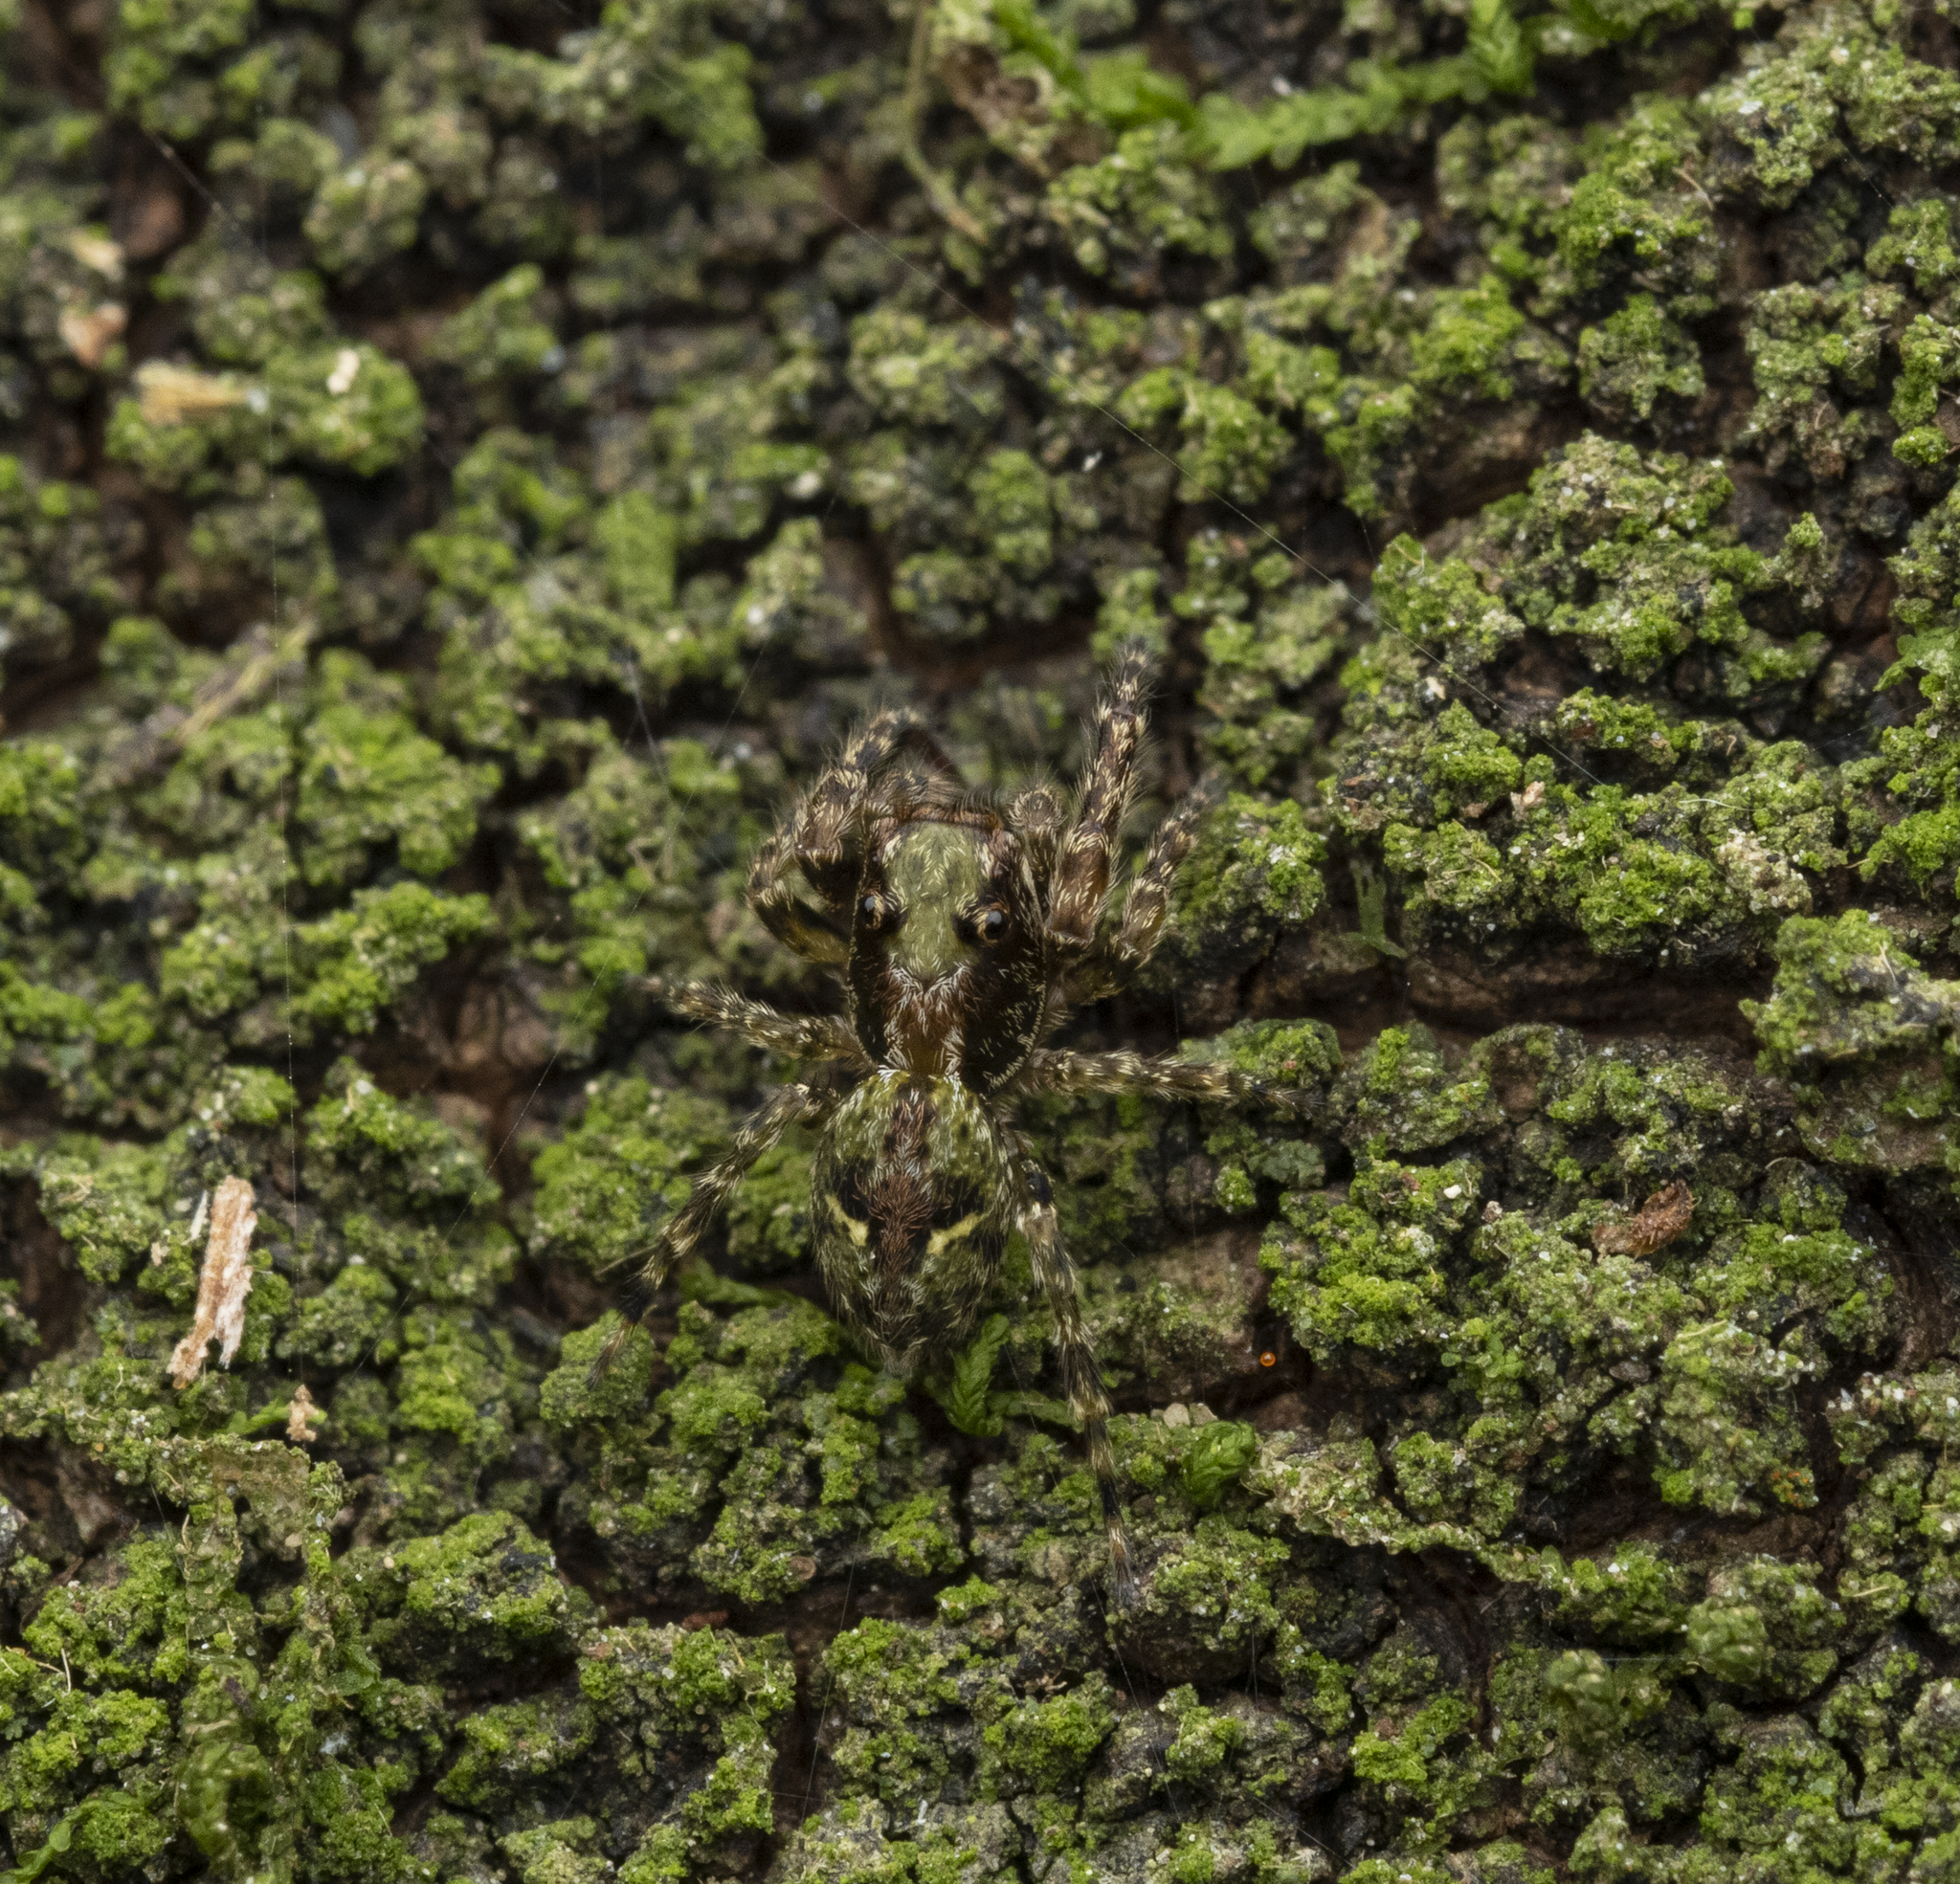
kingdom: Animalia
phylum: Arthropoda
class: Arachnida
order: Araneae
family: Salticidae
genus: Hinewaia
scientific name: Hinewaia embolica
